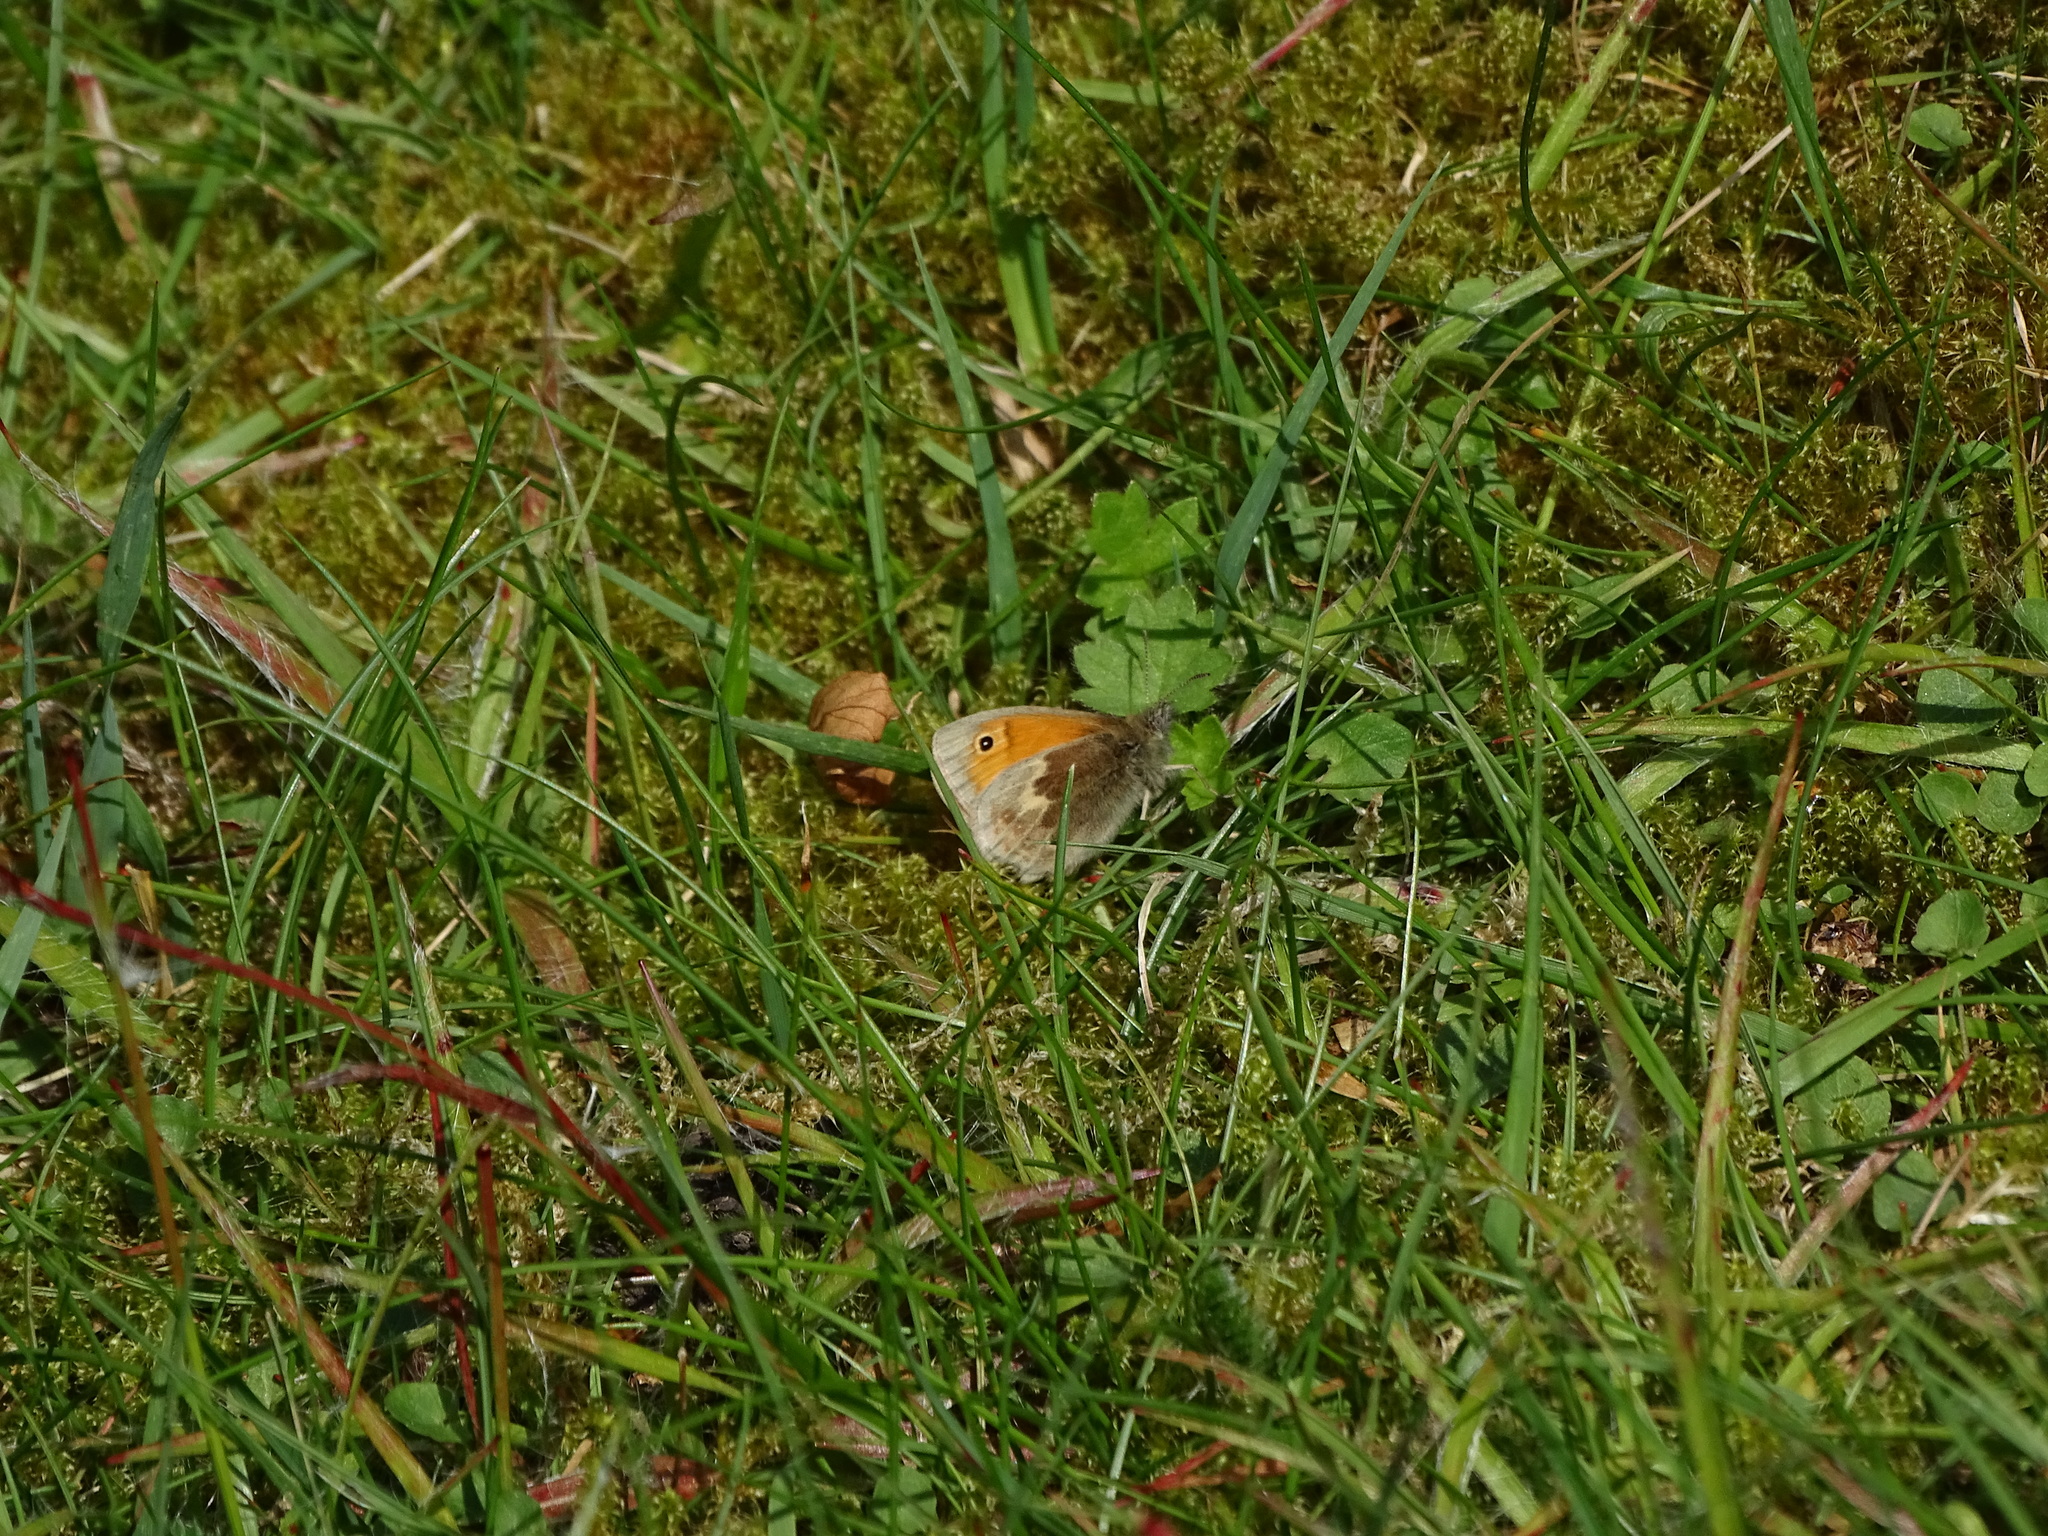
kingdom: Animalia
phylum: Arthropoda
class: Insecta
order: Lepidoptera
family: Nymphalidae
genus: Coenonympha
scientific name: Coenonympha pamphilus
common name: Small heath
